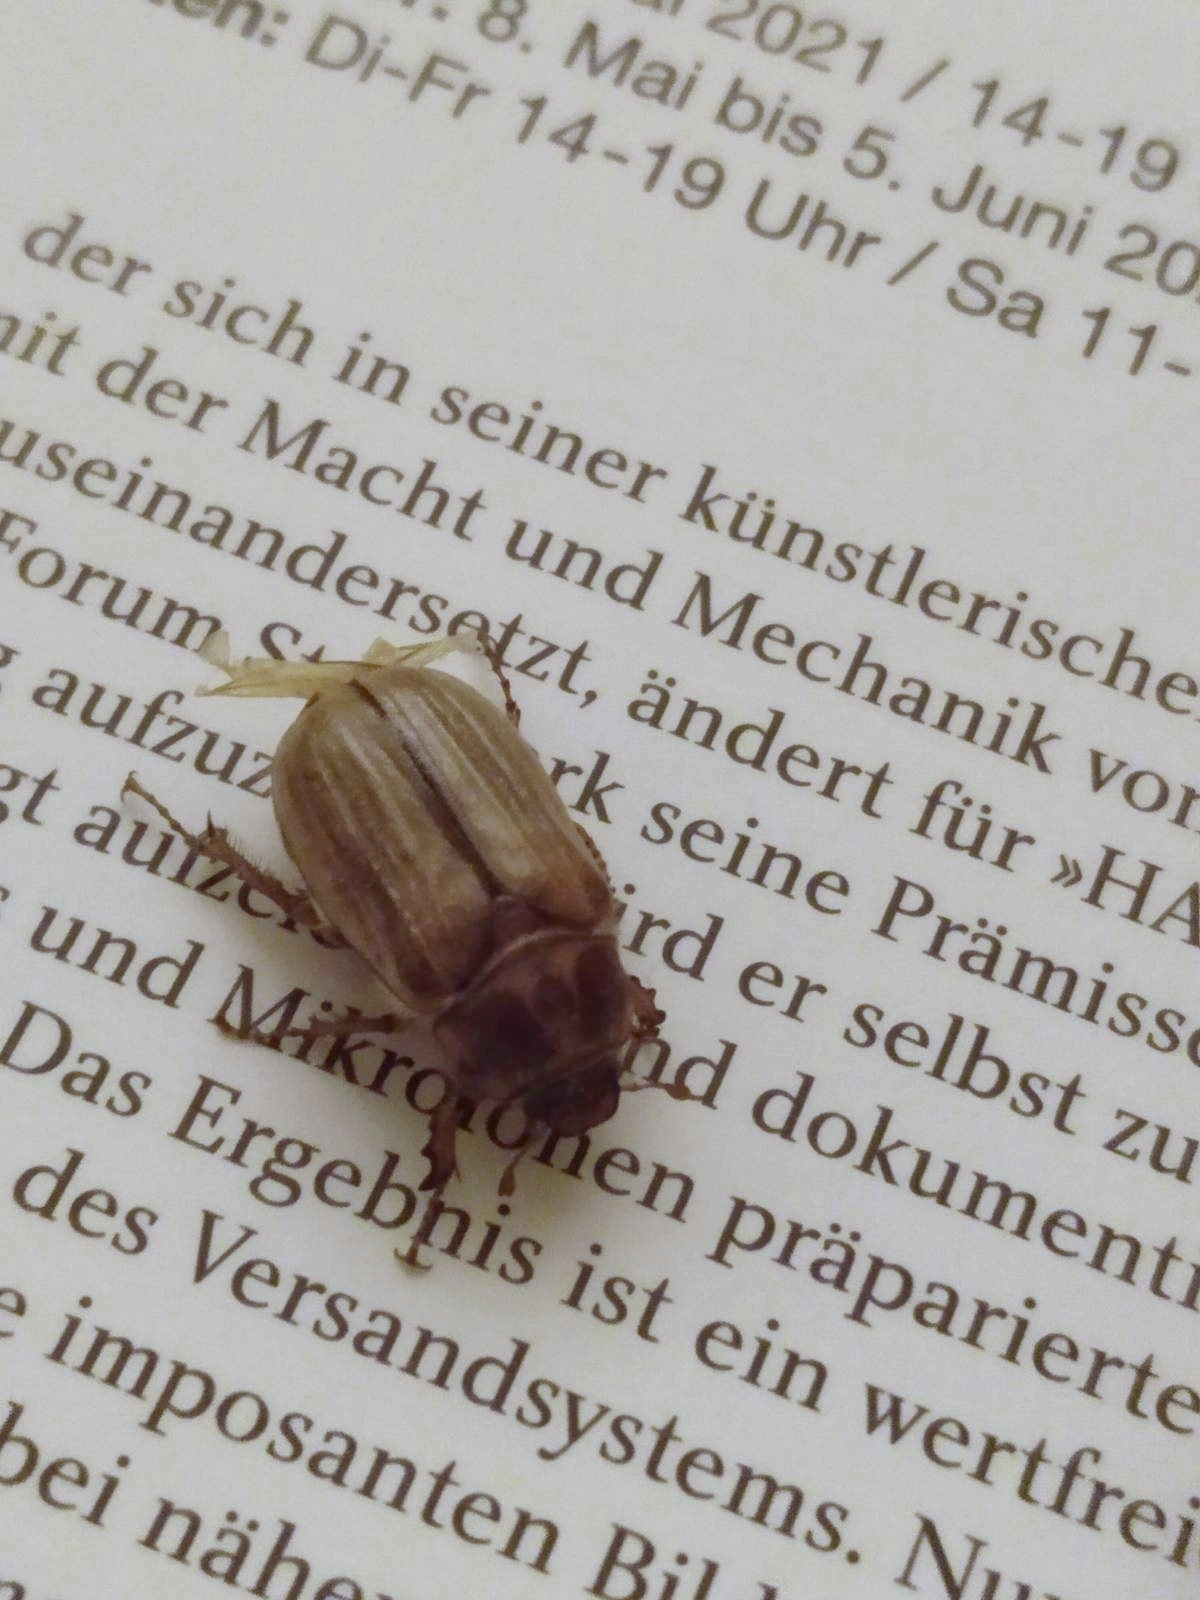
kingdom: Animalia
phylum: Arthropoda
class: Insecta
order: Coleoptera
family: Scarabaeidae
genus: Amphimallon
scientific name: Amphimallon solstitiale
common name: Summer chafer
